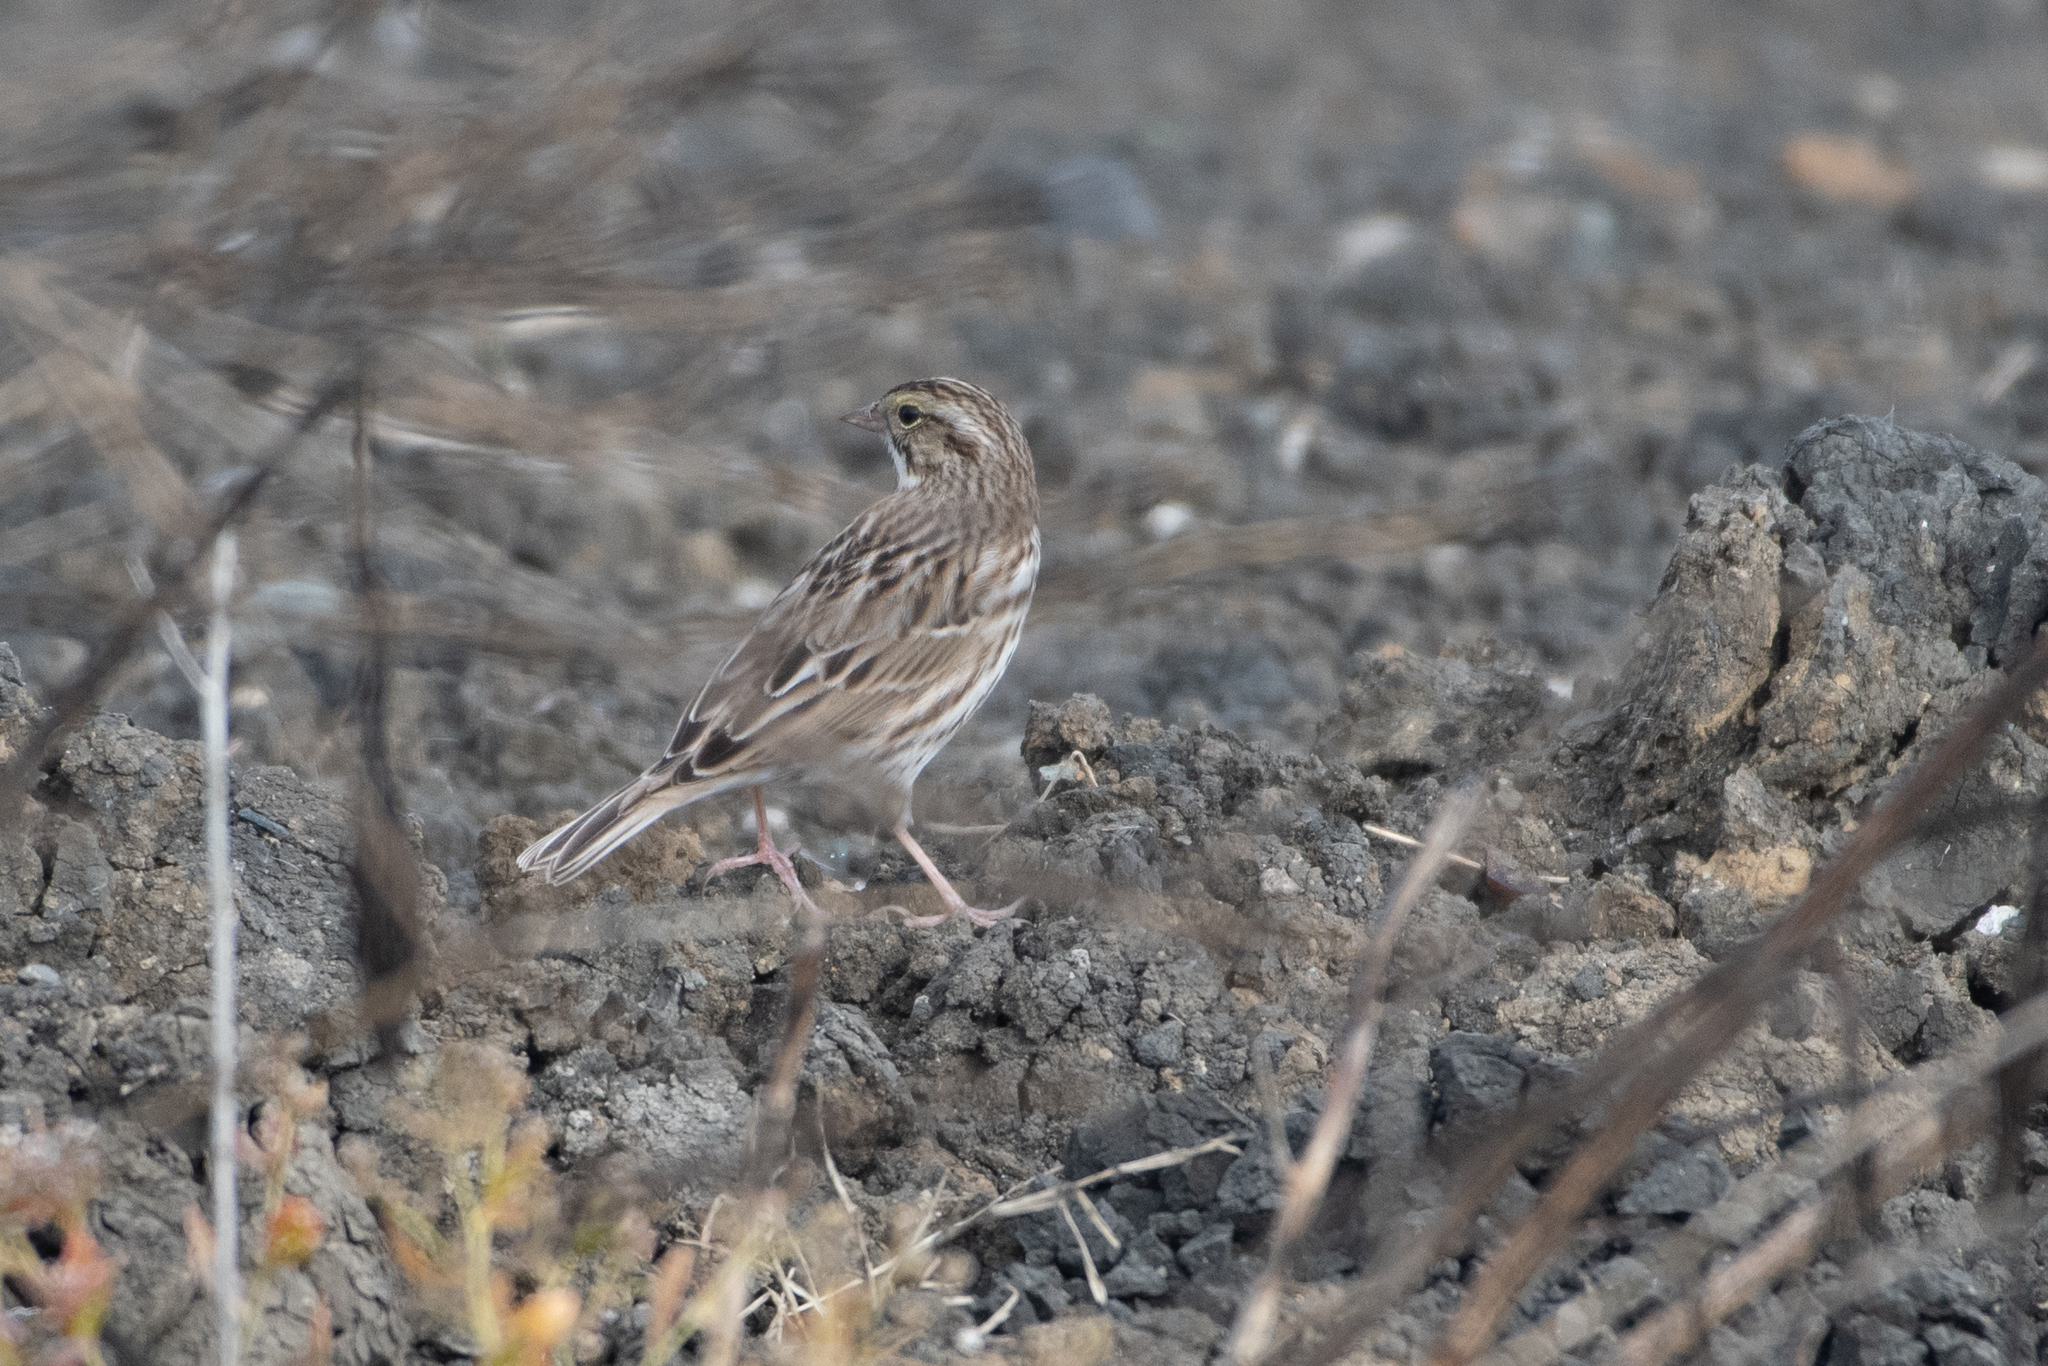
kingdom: Animalia
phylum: Chordata
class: Aves
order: Passeriformes
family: Passerellidae
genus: Passerculus
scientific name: Passerculus sandwichensis
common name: Savannah sparrow
